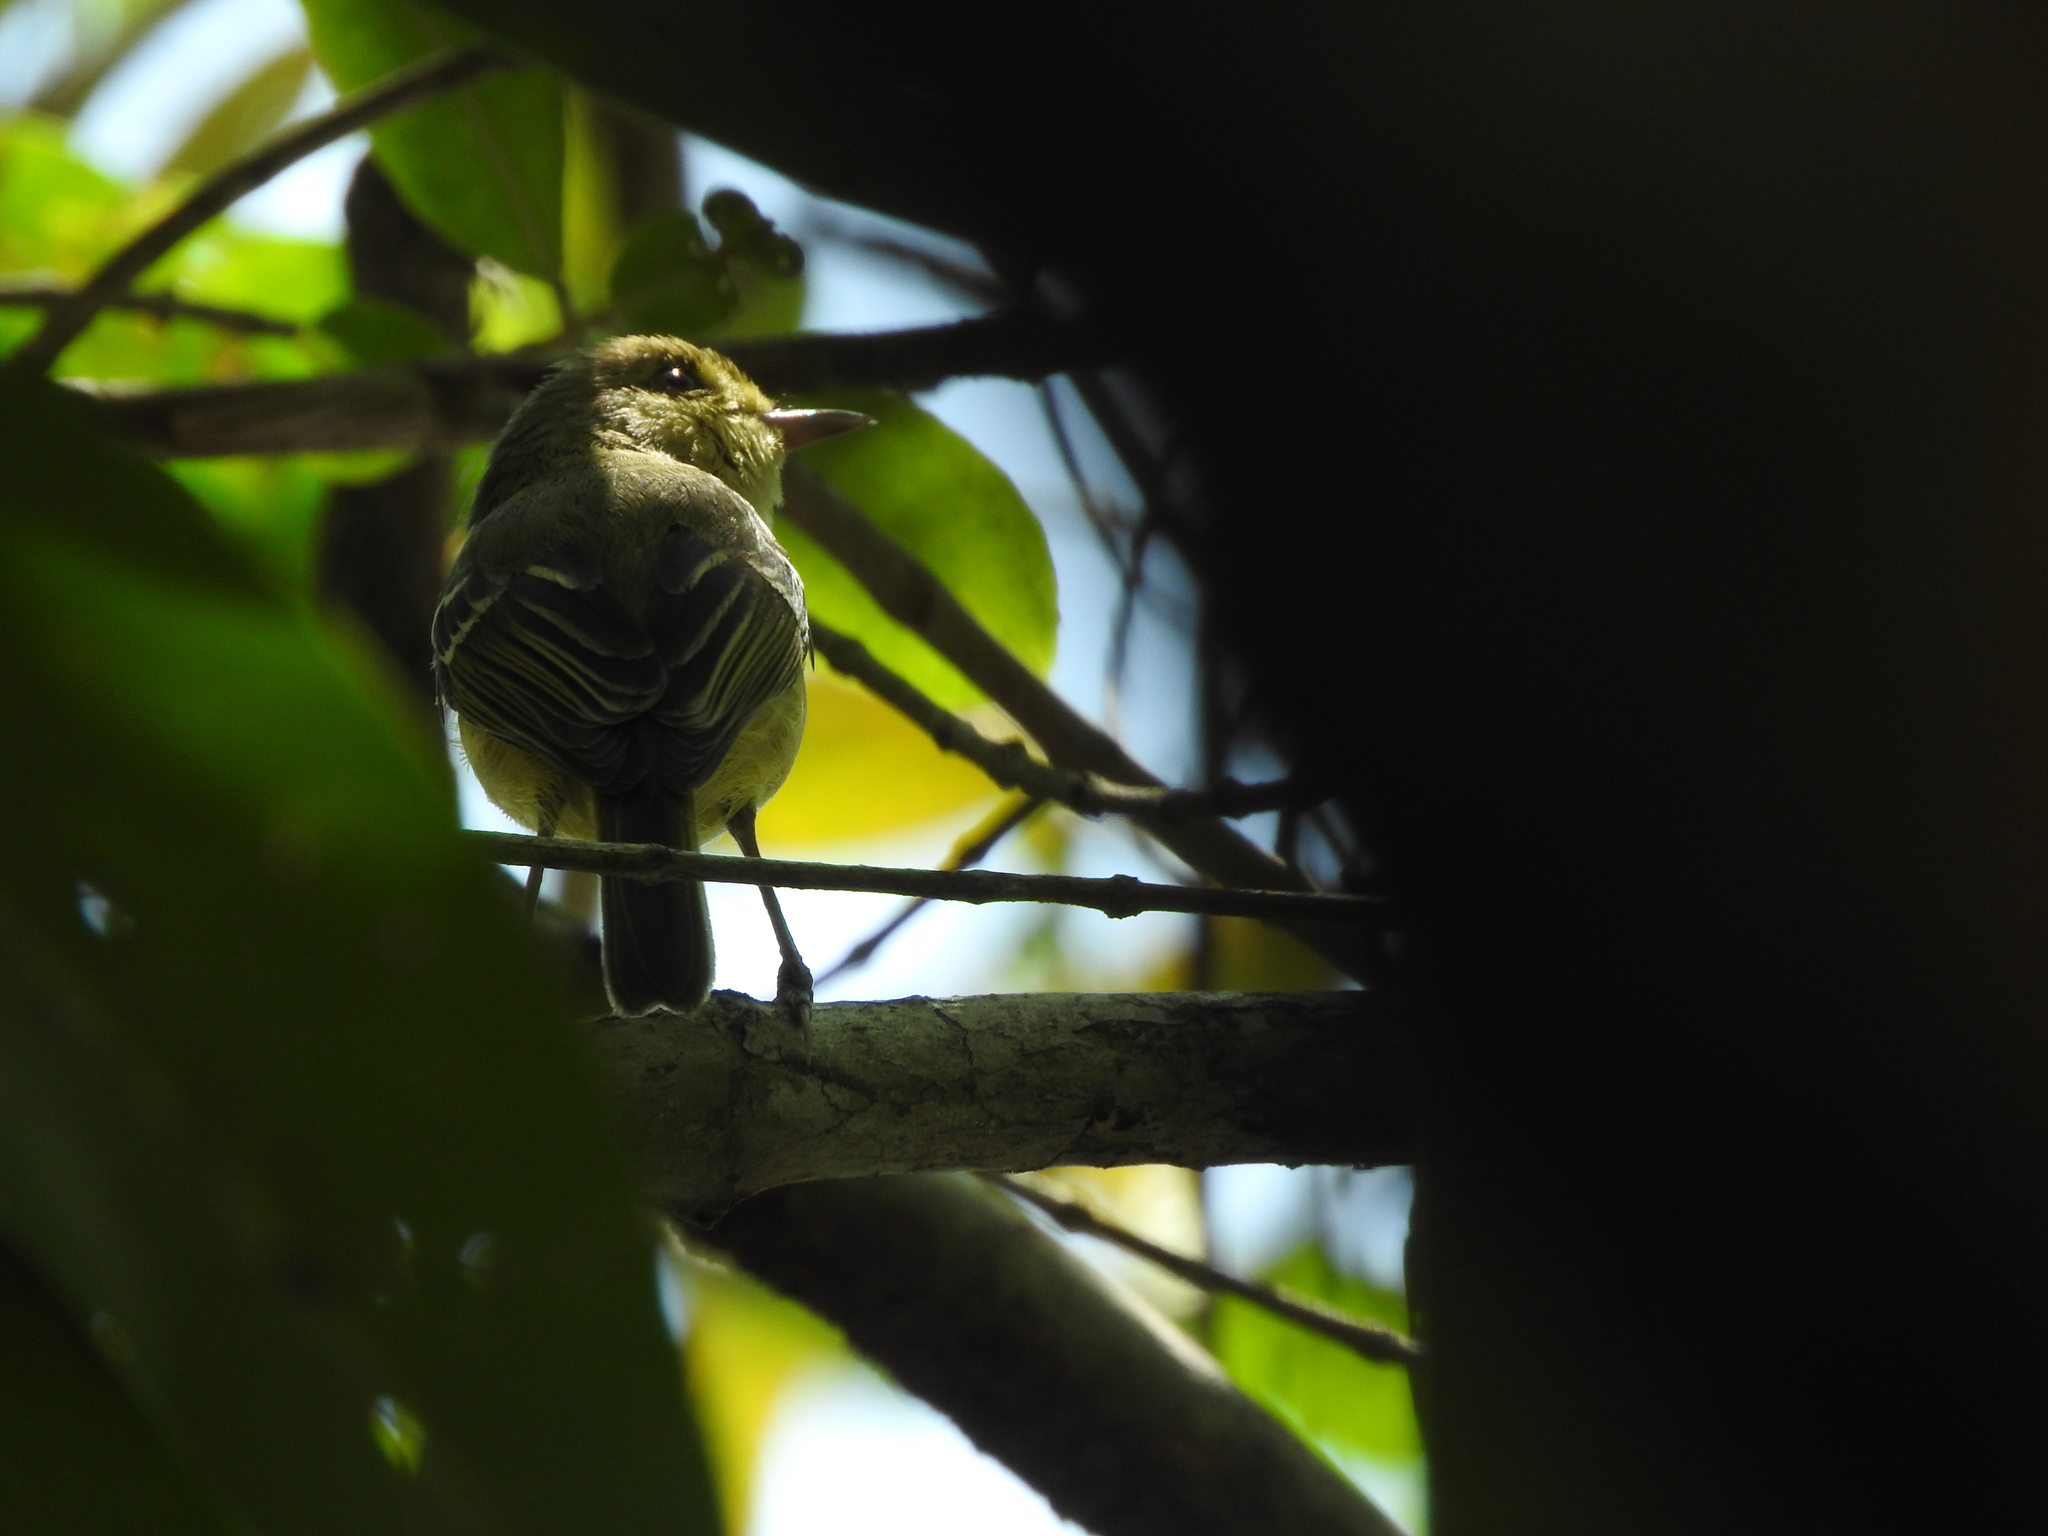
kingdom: Animalia
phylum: Chordata
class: Aves
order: Passeriformes
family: Vireonidae
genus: Vireo
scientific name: Vireo pallens
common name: Mangrove vireo
